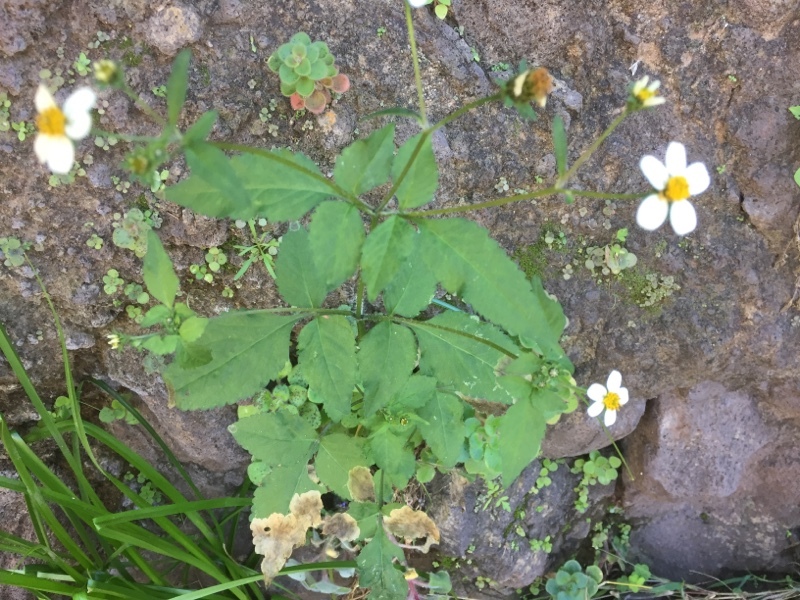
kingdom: Plantae
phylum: Tracheophyta
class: Magnoliopsida
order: Asterales
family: Asteraceae
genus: Bidens
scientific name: Bidens pilosa
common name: Black-jack
